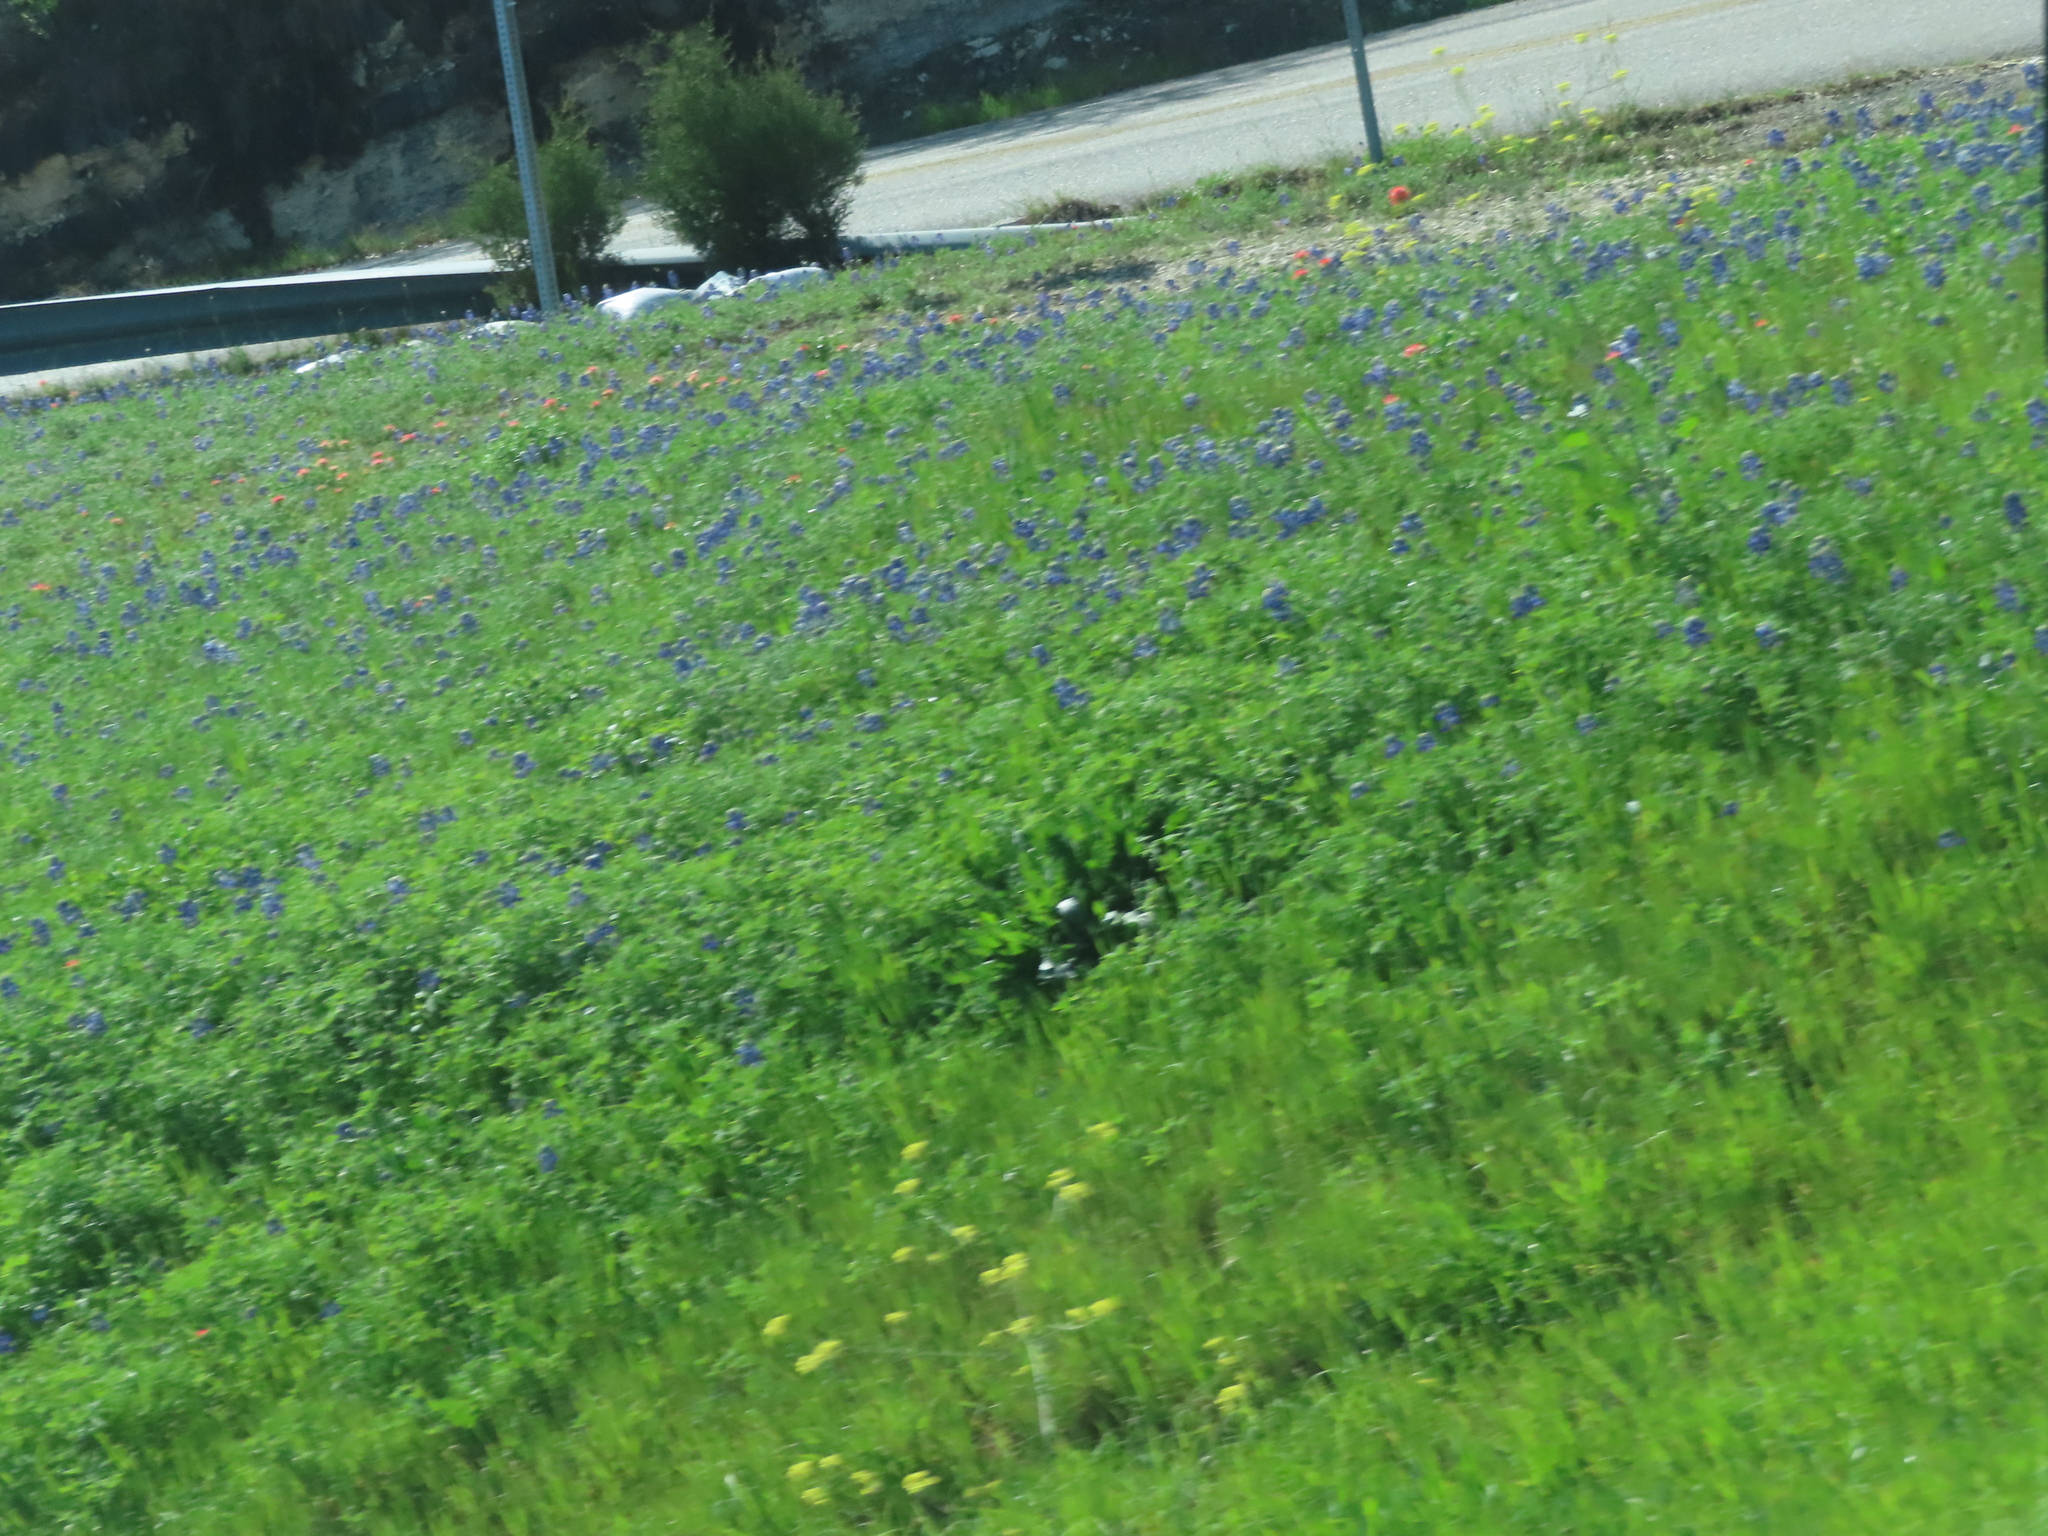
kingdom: Plantae
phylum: Tracheophyta
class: Magnoliopsida
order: Fabales
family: Fabaceae
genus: Lupinus
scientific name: Lupinus texensis
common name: Texas bluebonnet
